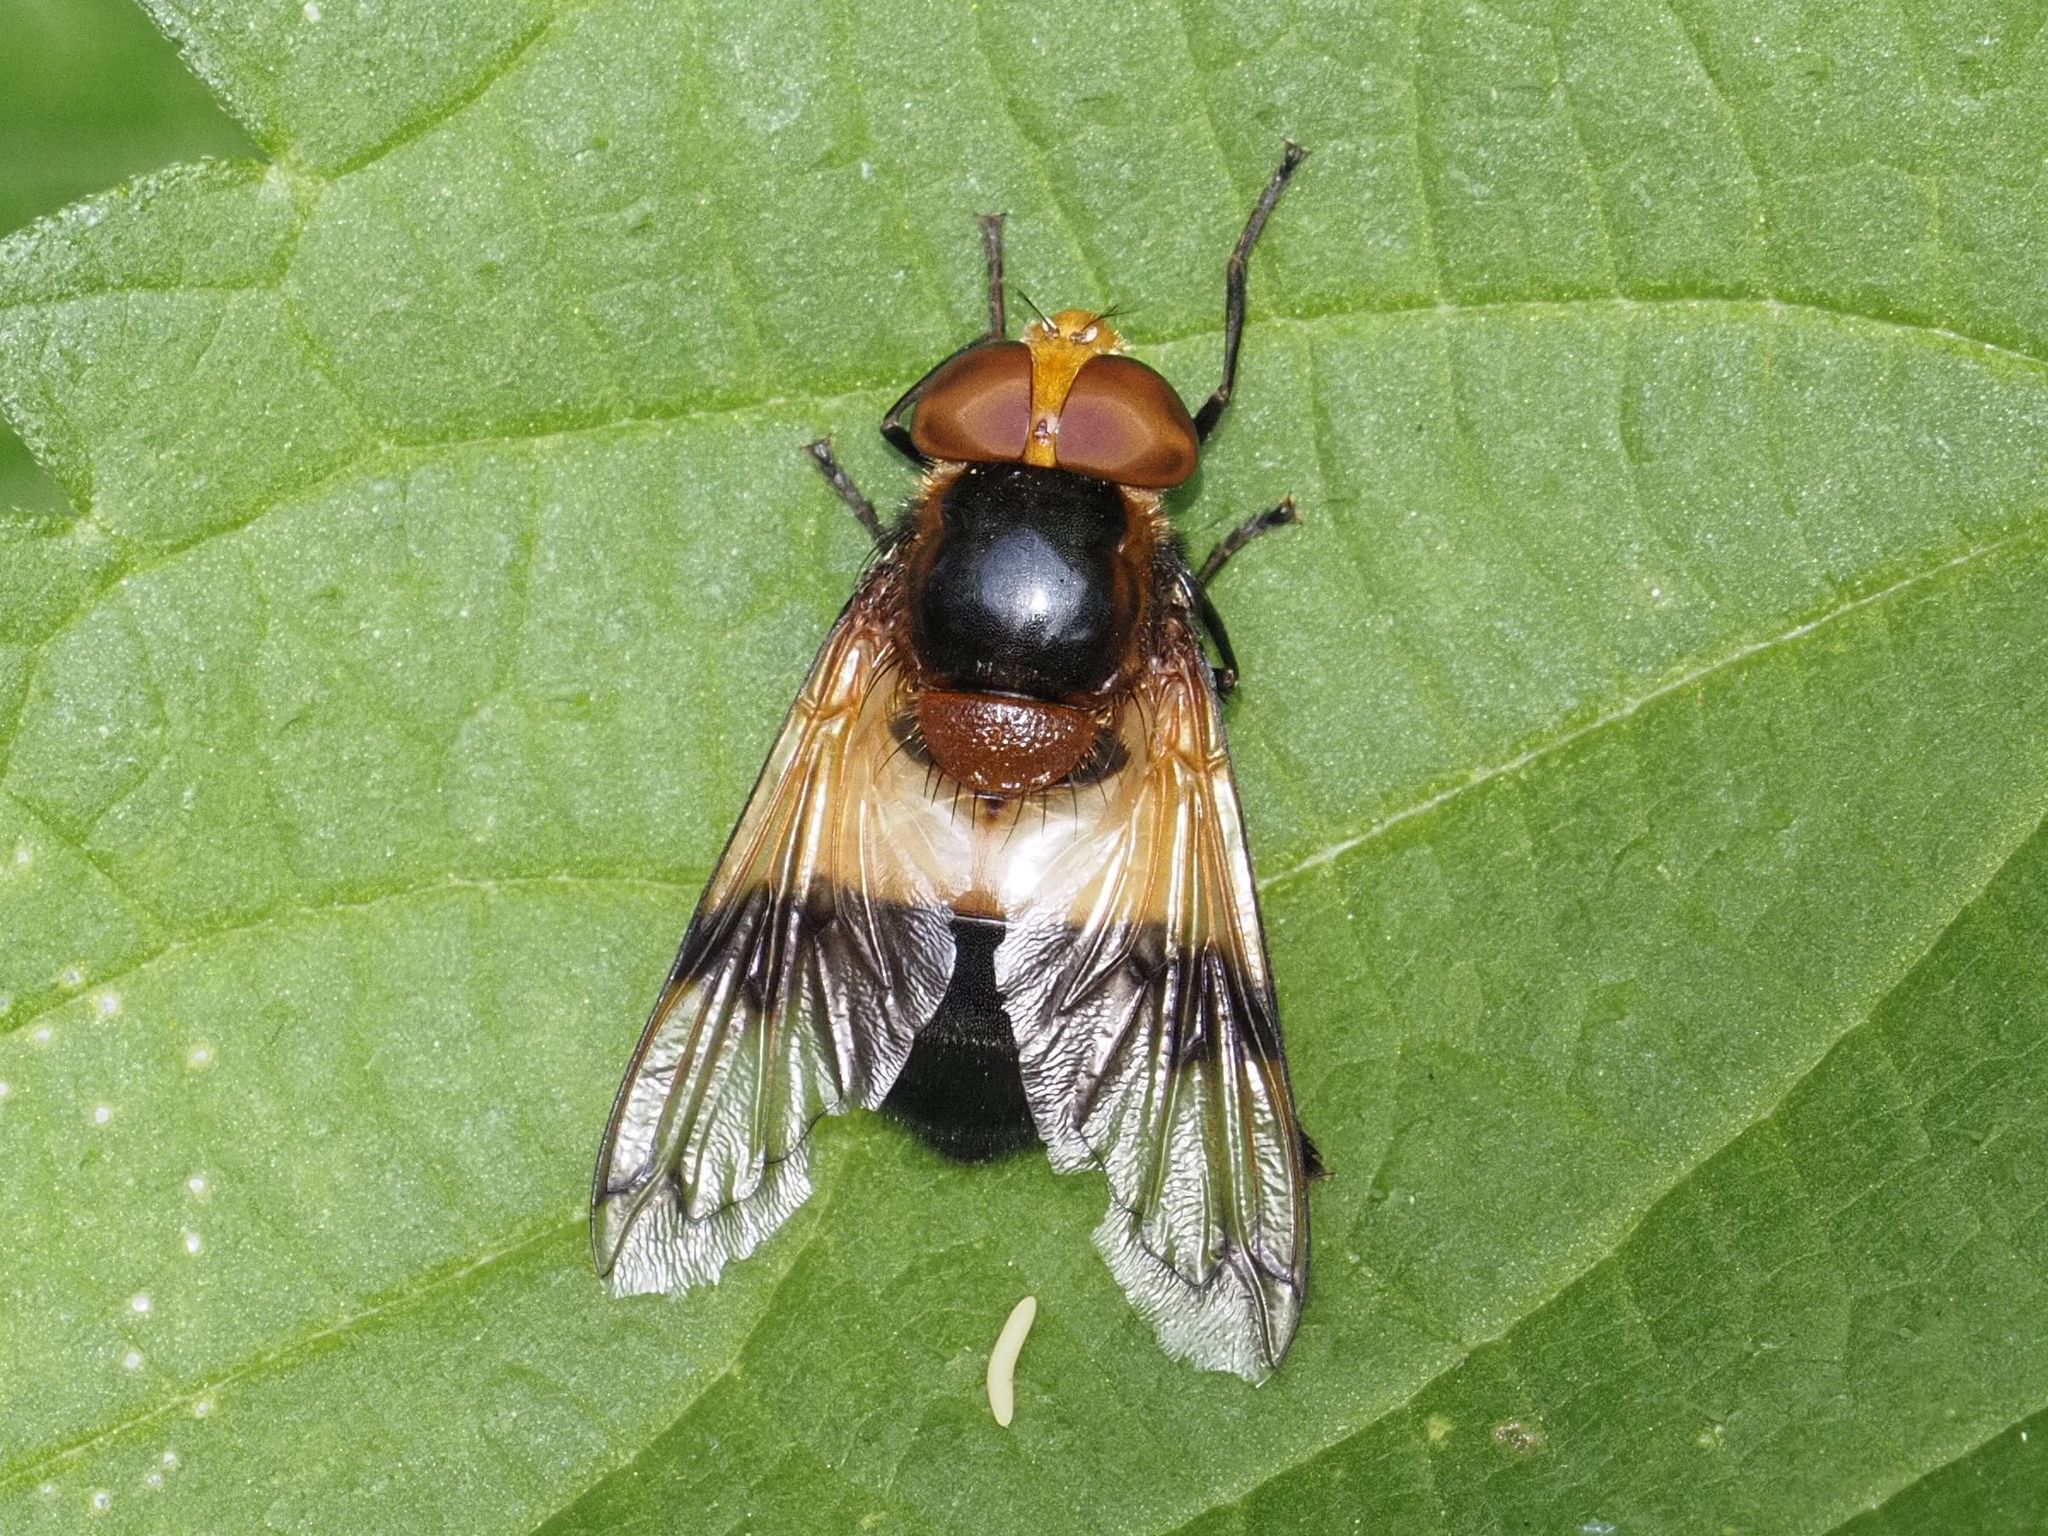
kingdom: Animalia
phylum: Arthropoda
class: Insecta
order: Diptera
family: Syrphidae
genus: Volucella
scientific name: Volucella pellucens
